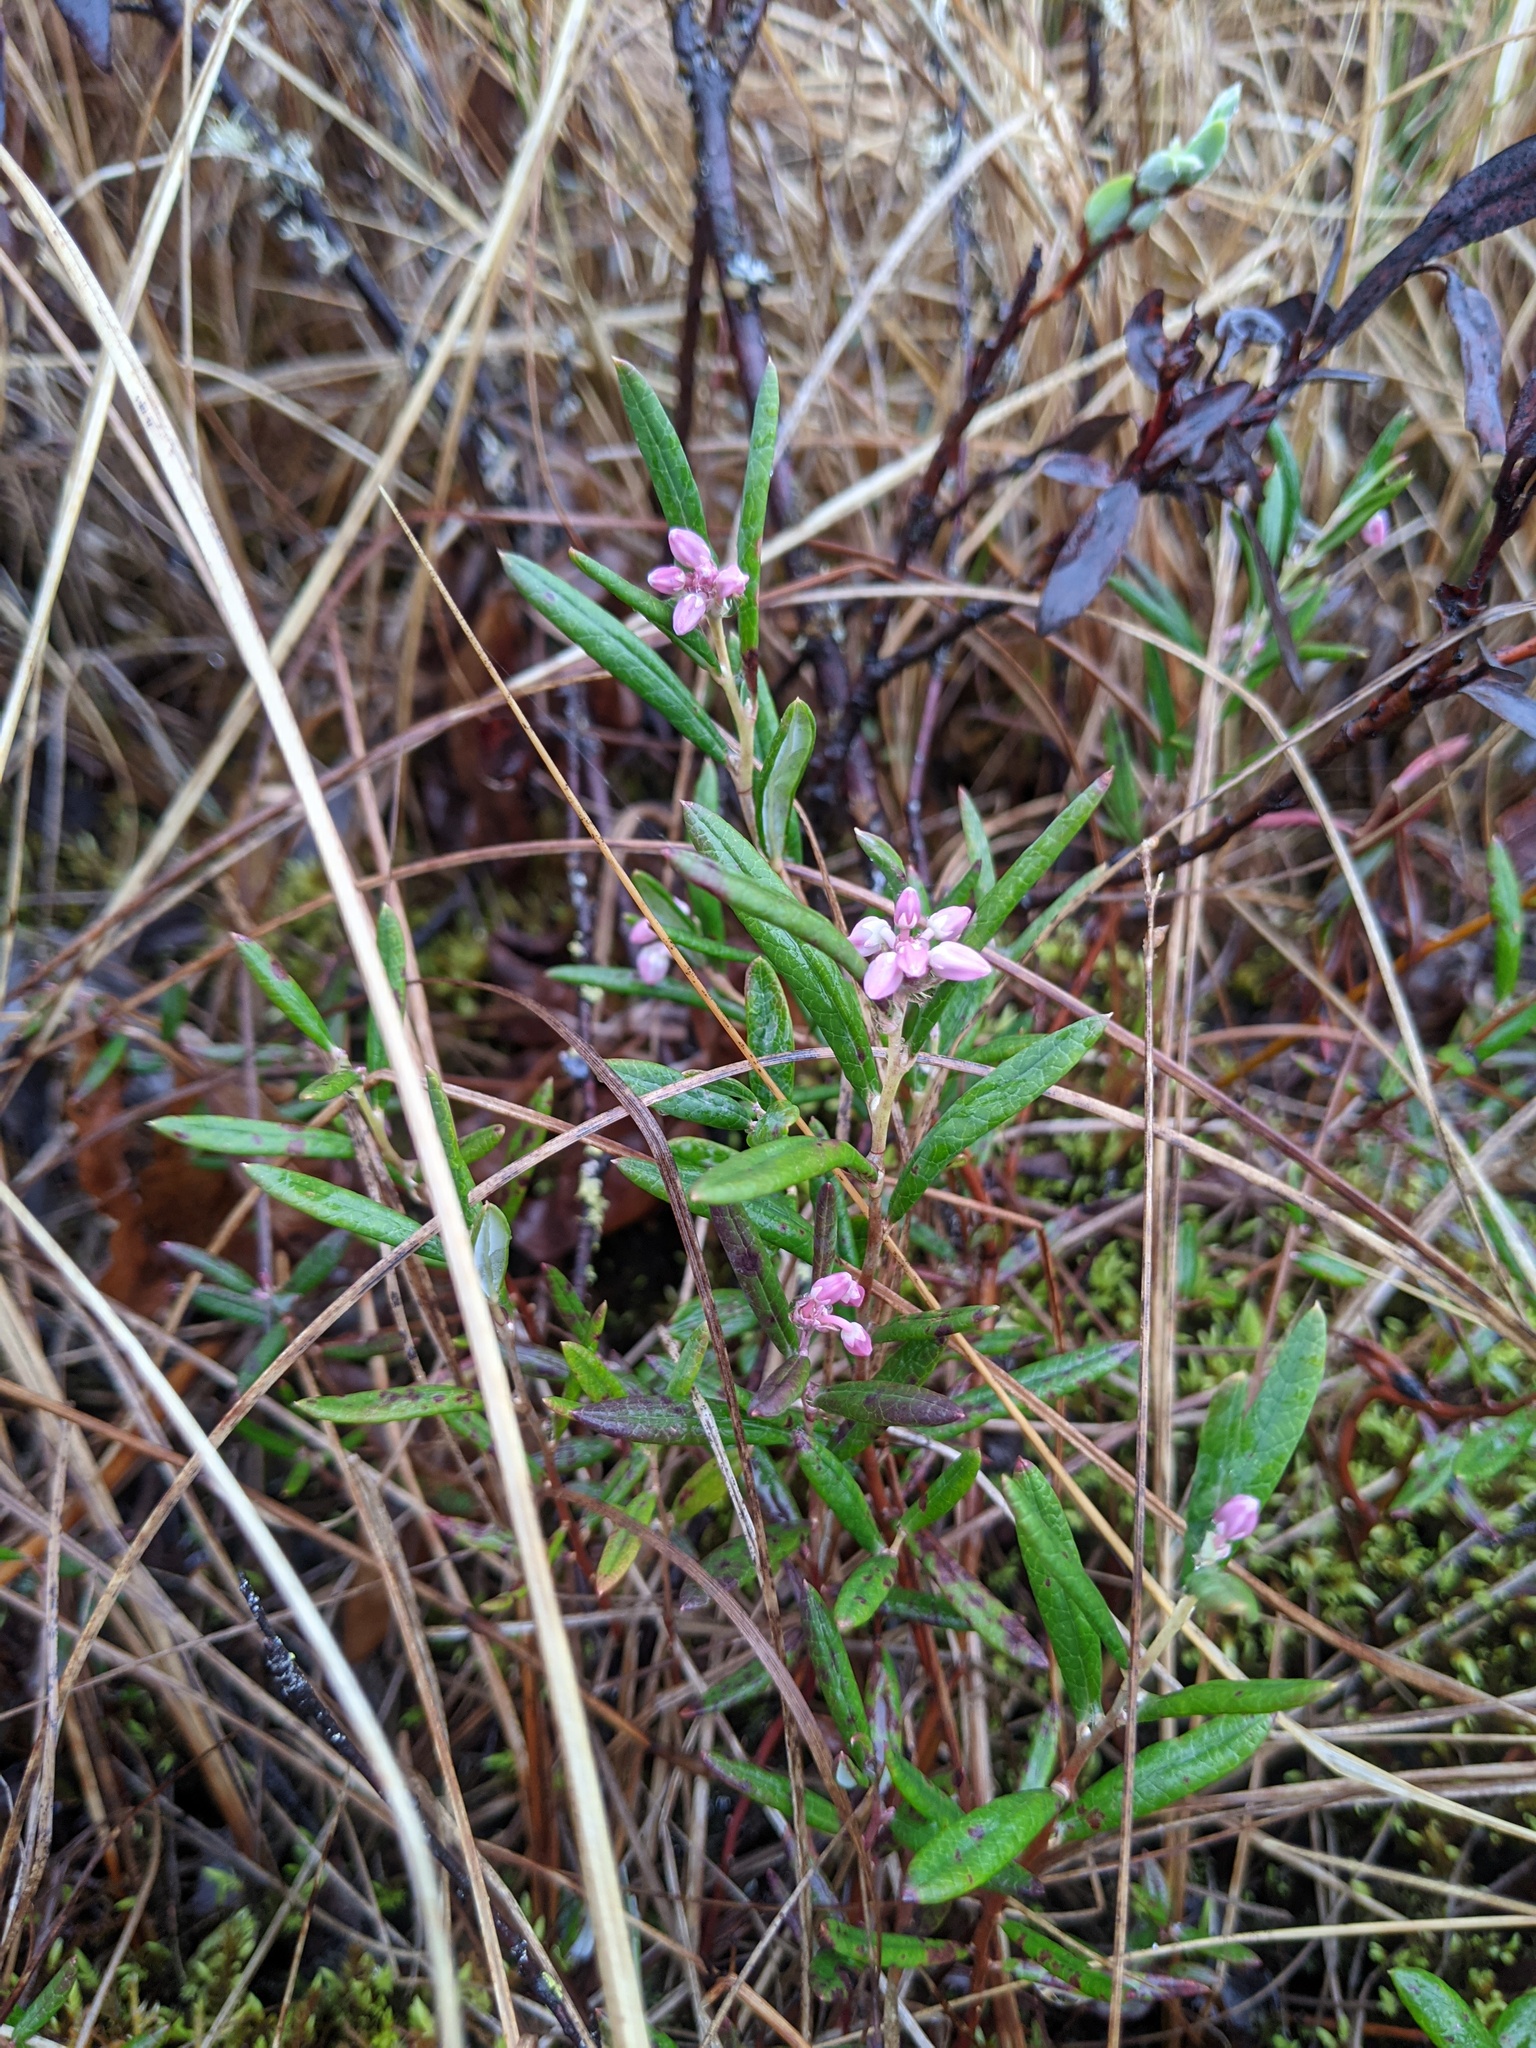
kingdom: Plantae
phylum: Tracheophyta
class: Magnoliopsida
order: Ericales
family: Ericaceae
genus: Andromeda
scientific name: Andromeda polifolia
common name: Bog-rosemary
